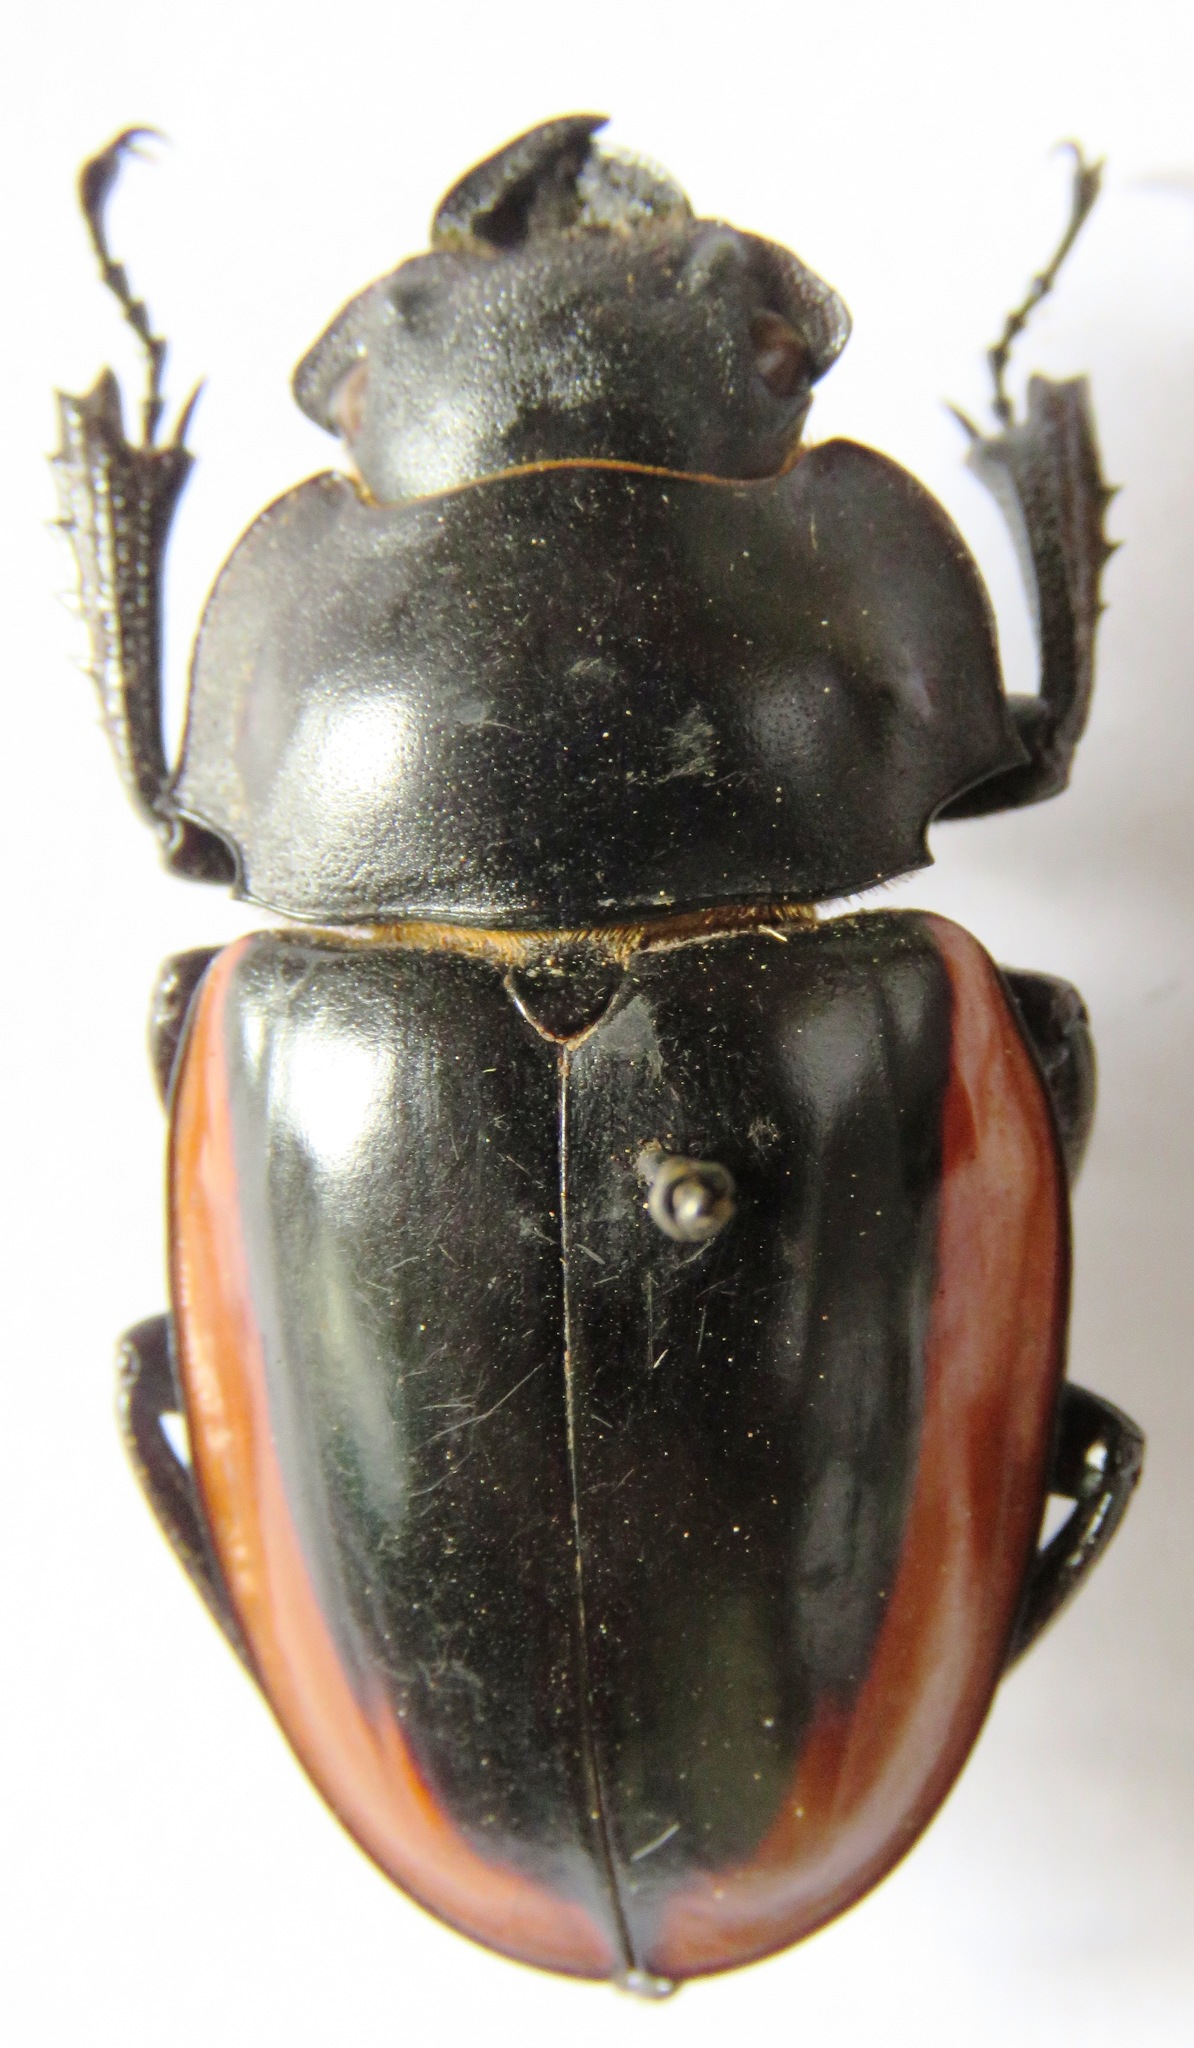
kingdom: Animalia
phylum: Arthropoda
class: Insecta
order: Coleoptera
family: Lucanidae
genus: Odontolabis
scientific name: Odontolabis cuvera
